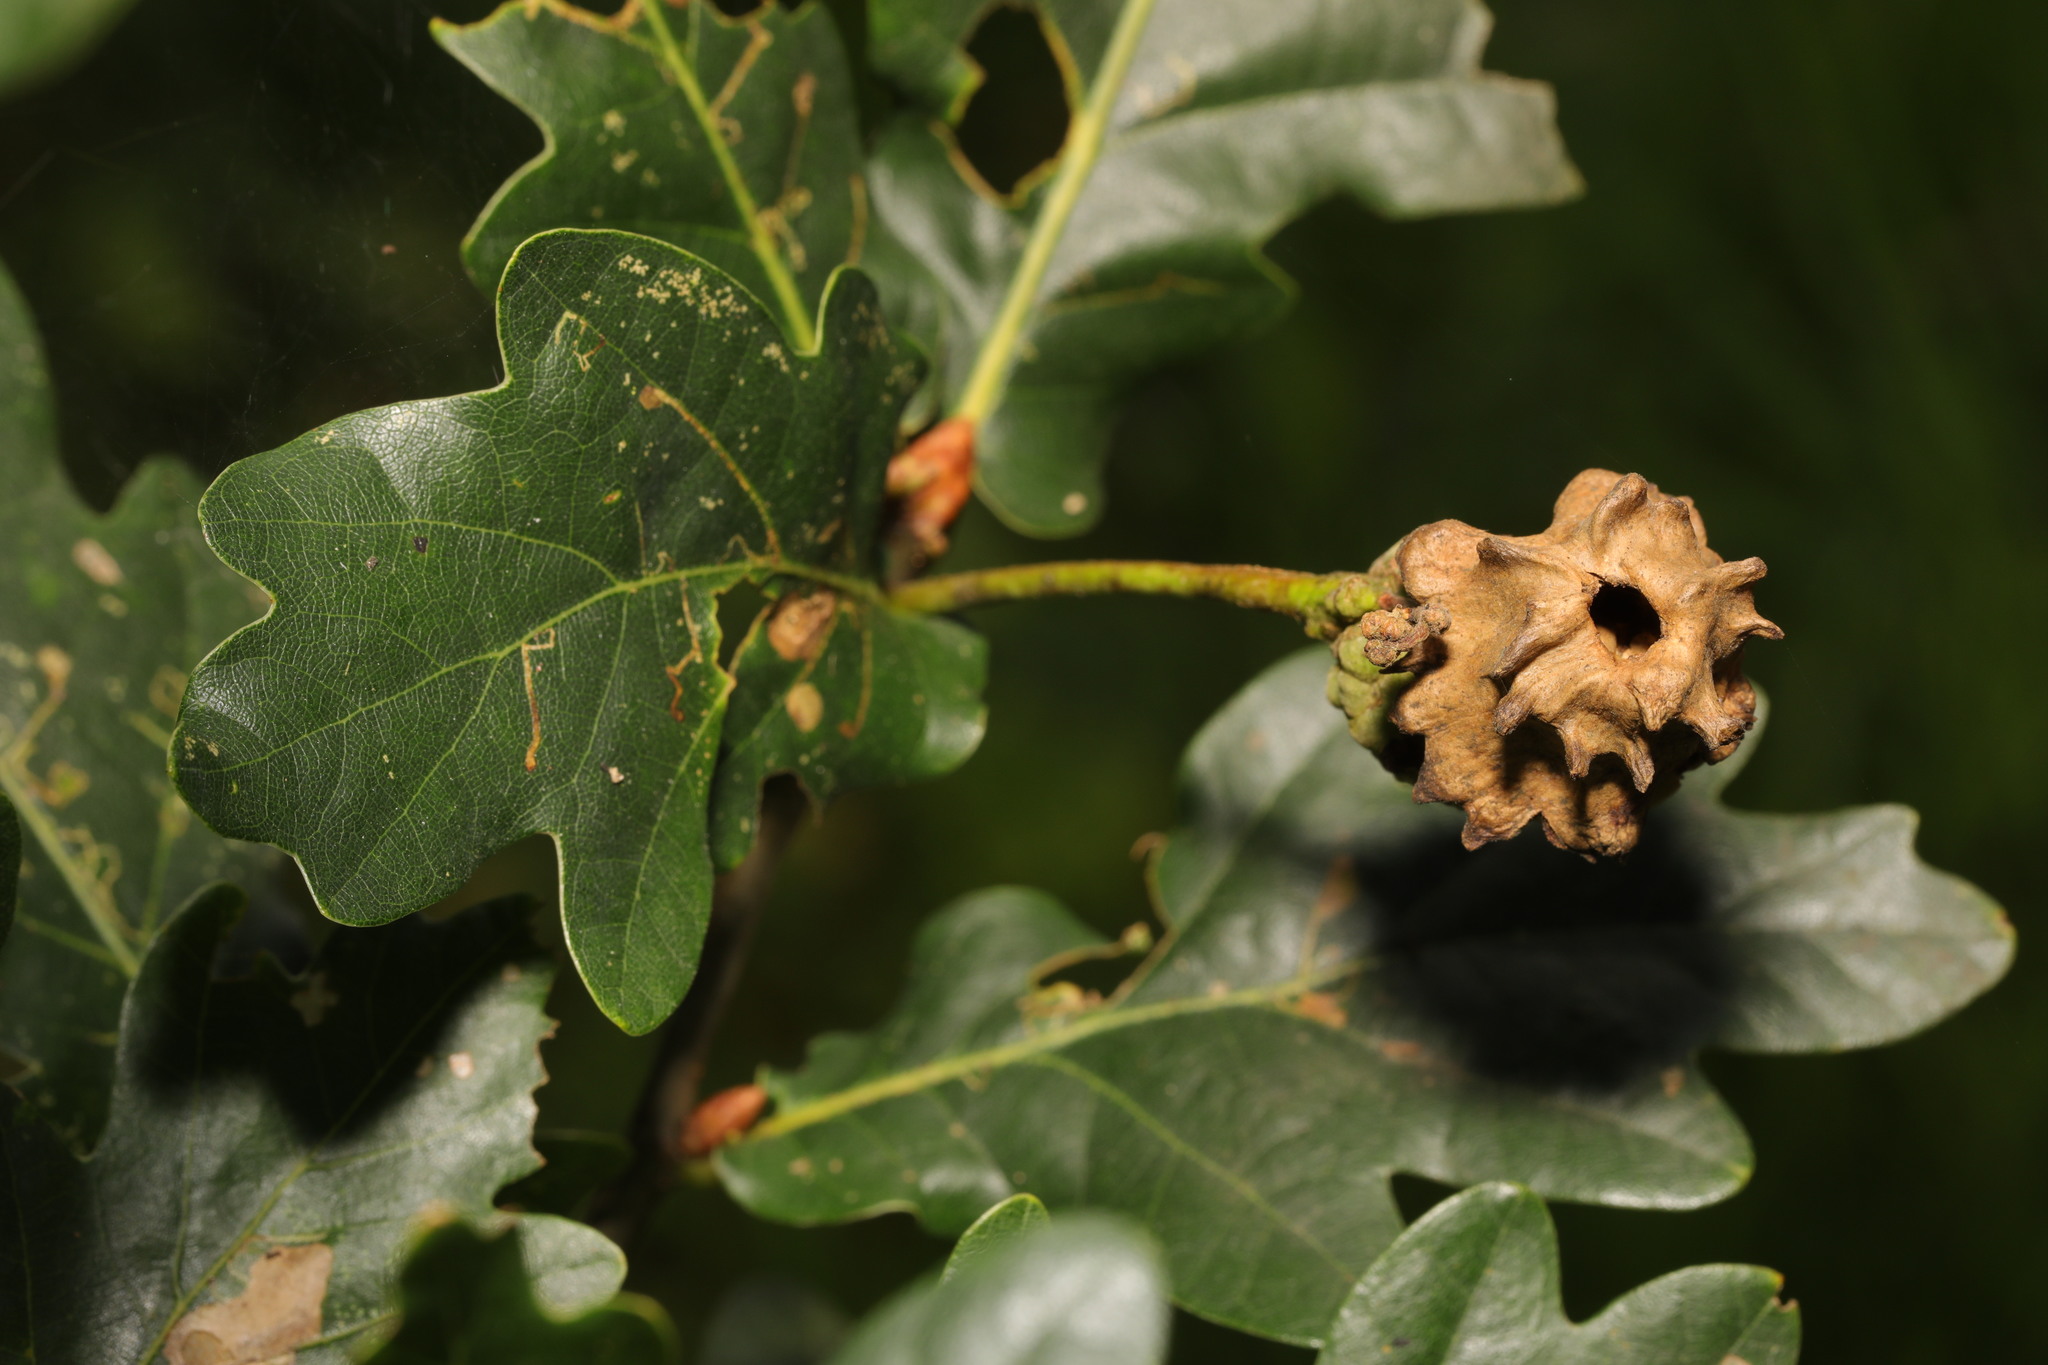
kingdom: Animalia
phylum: Arthropoda
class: Insecta
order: Hymenoptera
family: Cynipidae
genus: Andricus
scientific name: Andricus quercuscalicis
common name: Knopper gall
